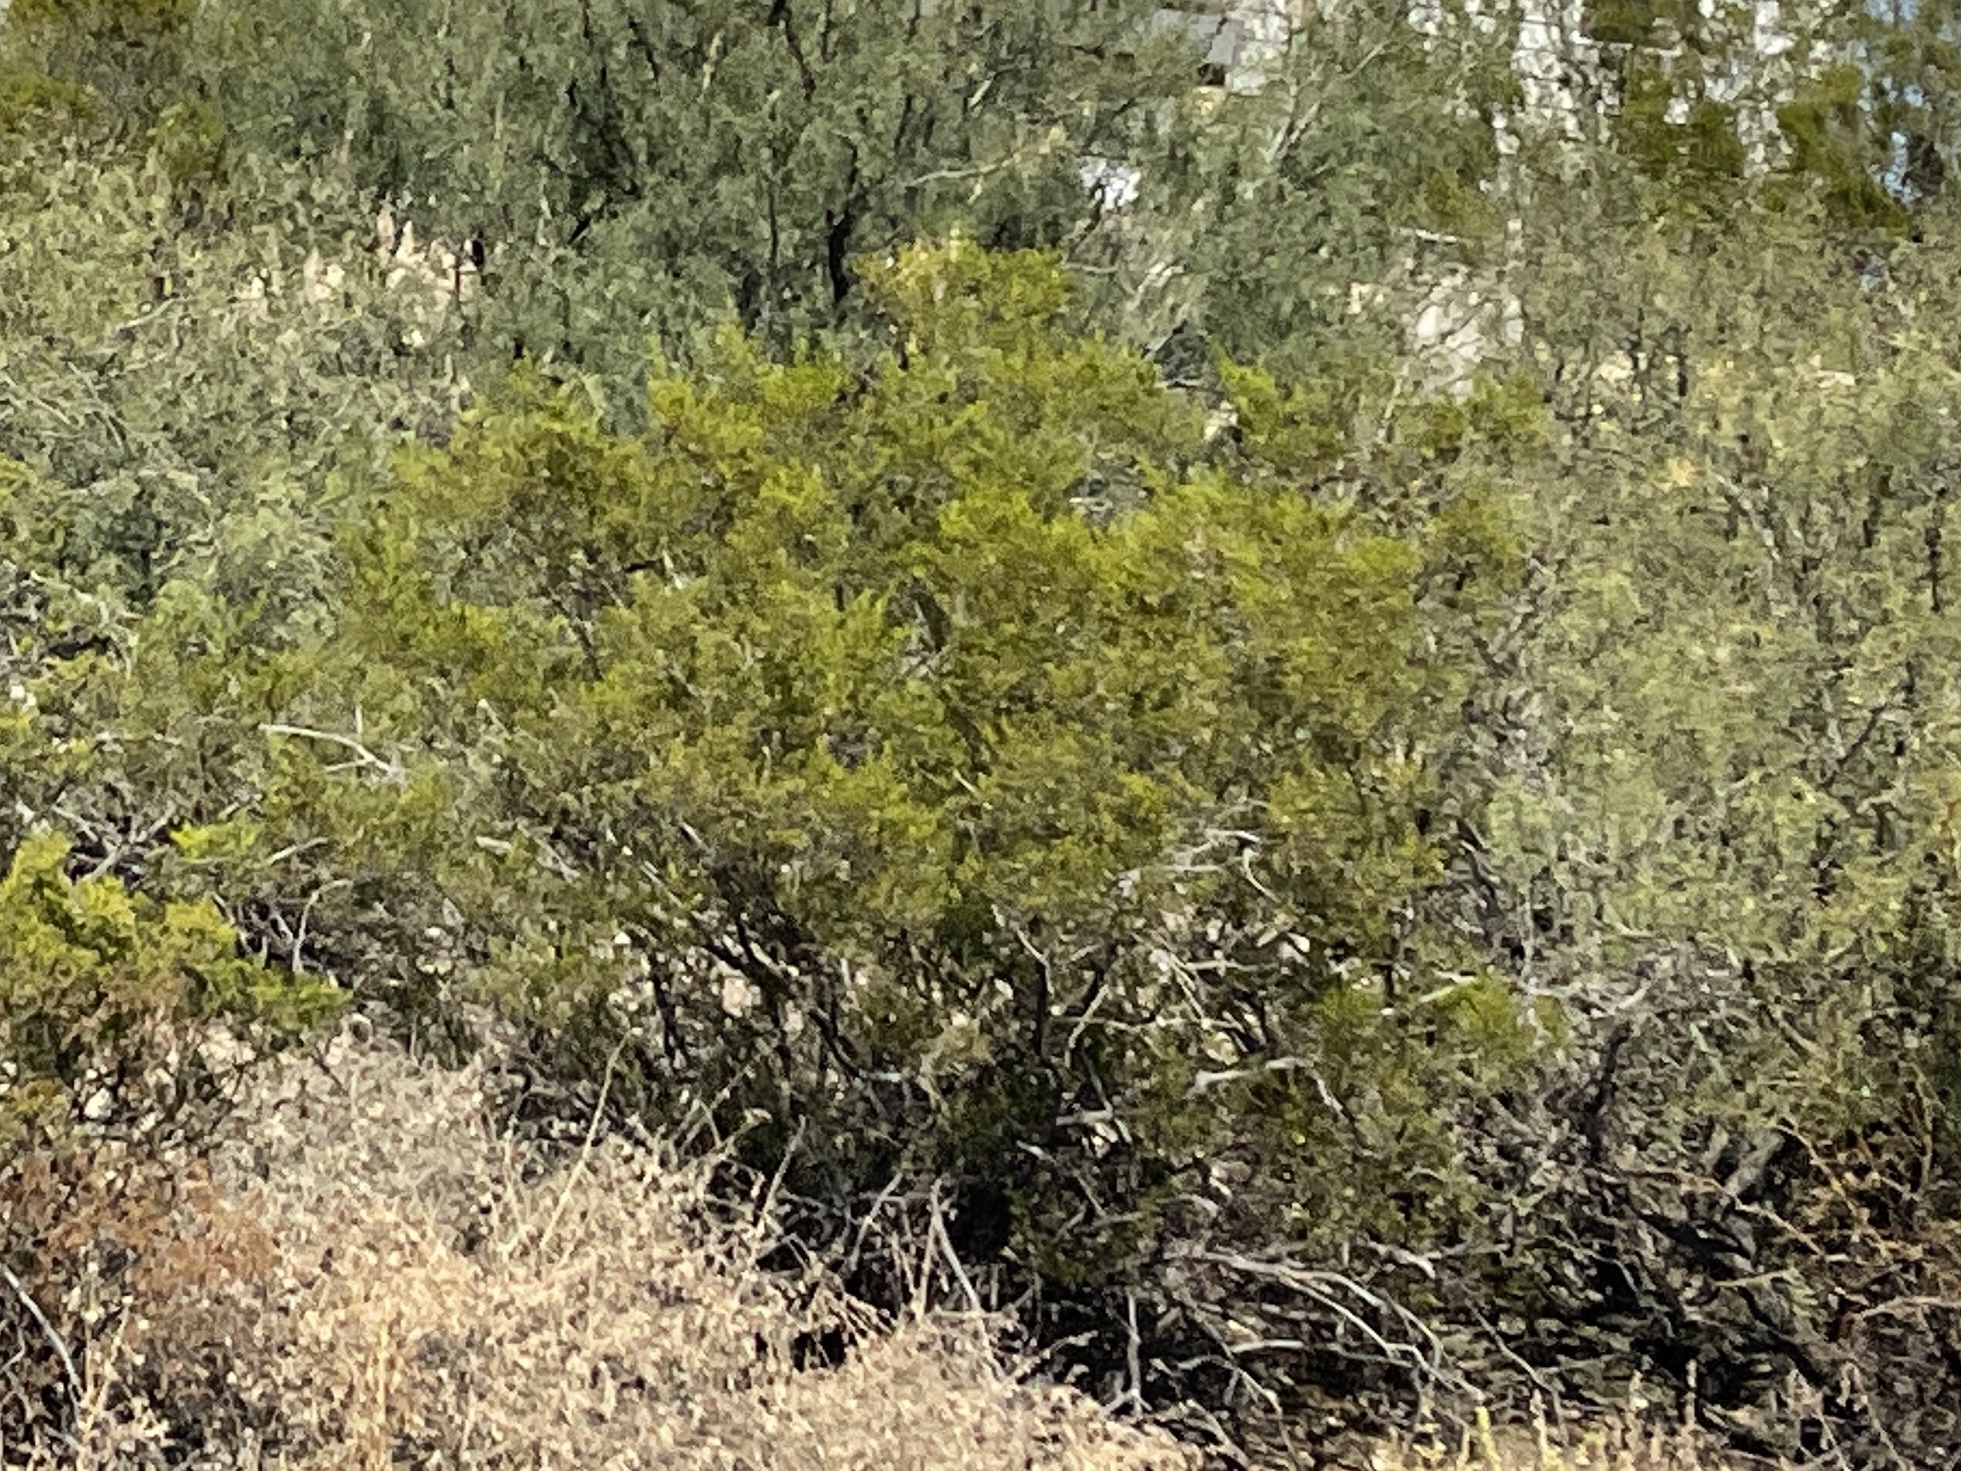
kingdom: Plantae
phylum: Tracheophyta
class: Magnoliopsida
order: Zygophyllales
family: Zygophyllaceae
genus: Larrea
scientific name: Larrea tridentata
